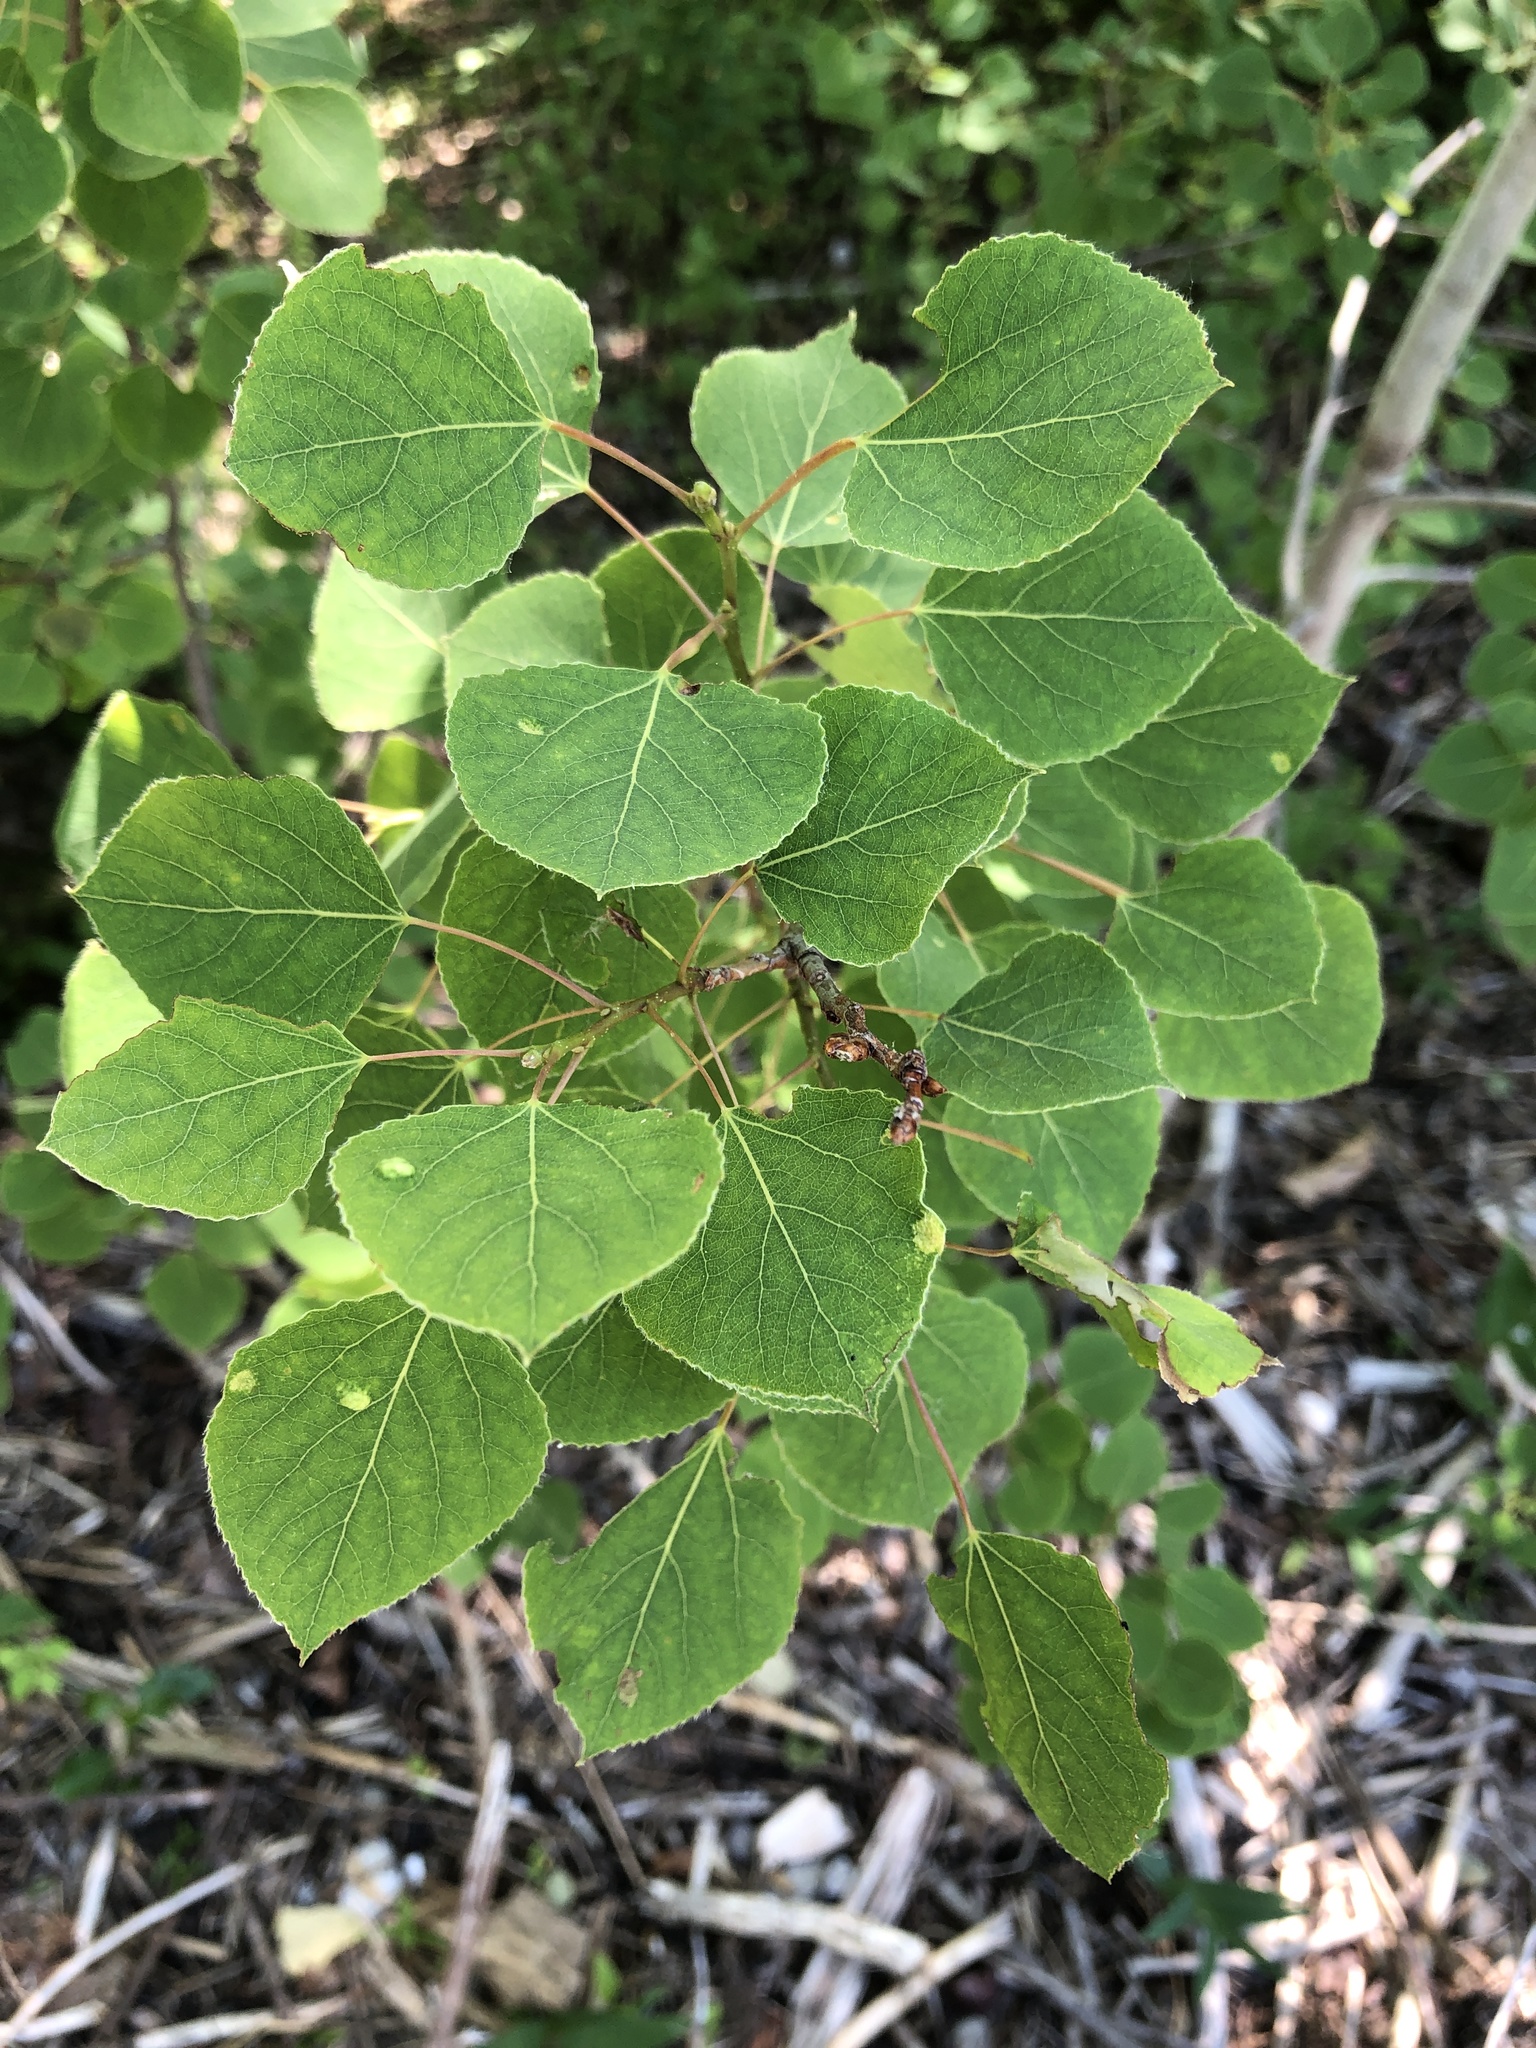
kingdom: Plantae
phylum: Tracheophyta
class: Magnoliopsida
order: Malpighiales
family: Salicaceae
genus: Populus
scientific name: Populus tremuloides
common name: Quaking aspen
